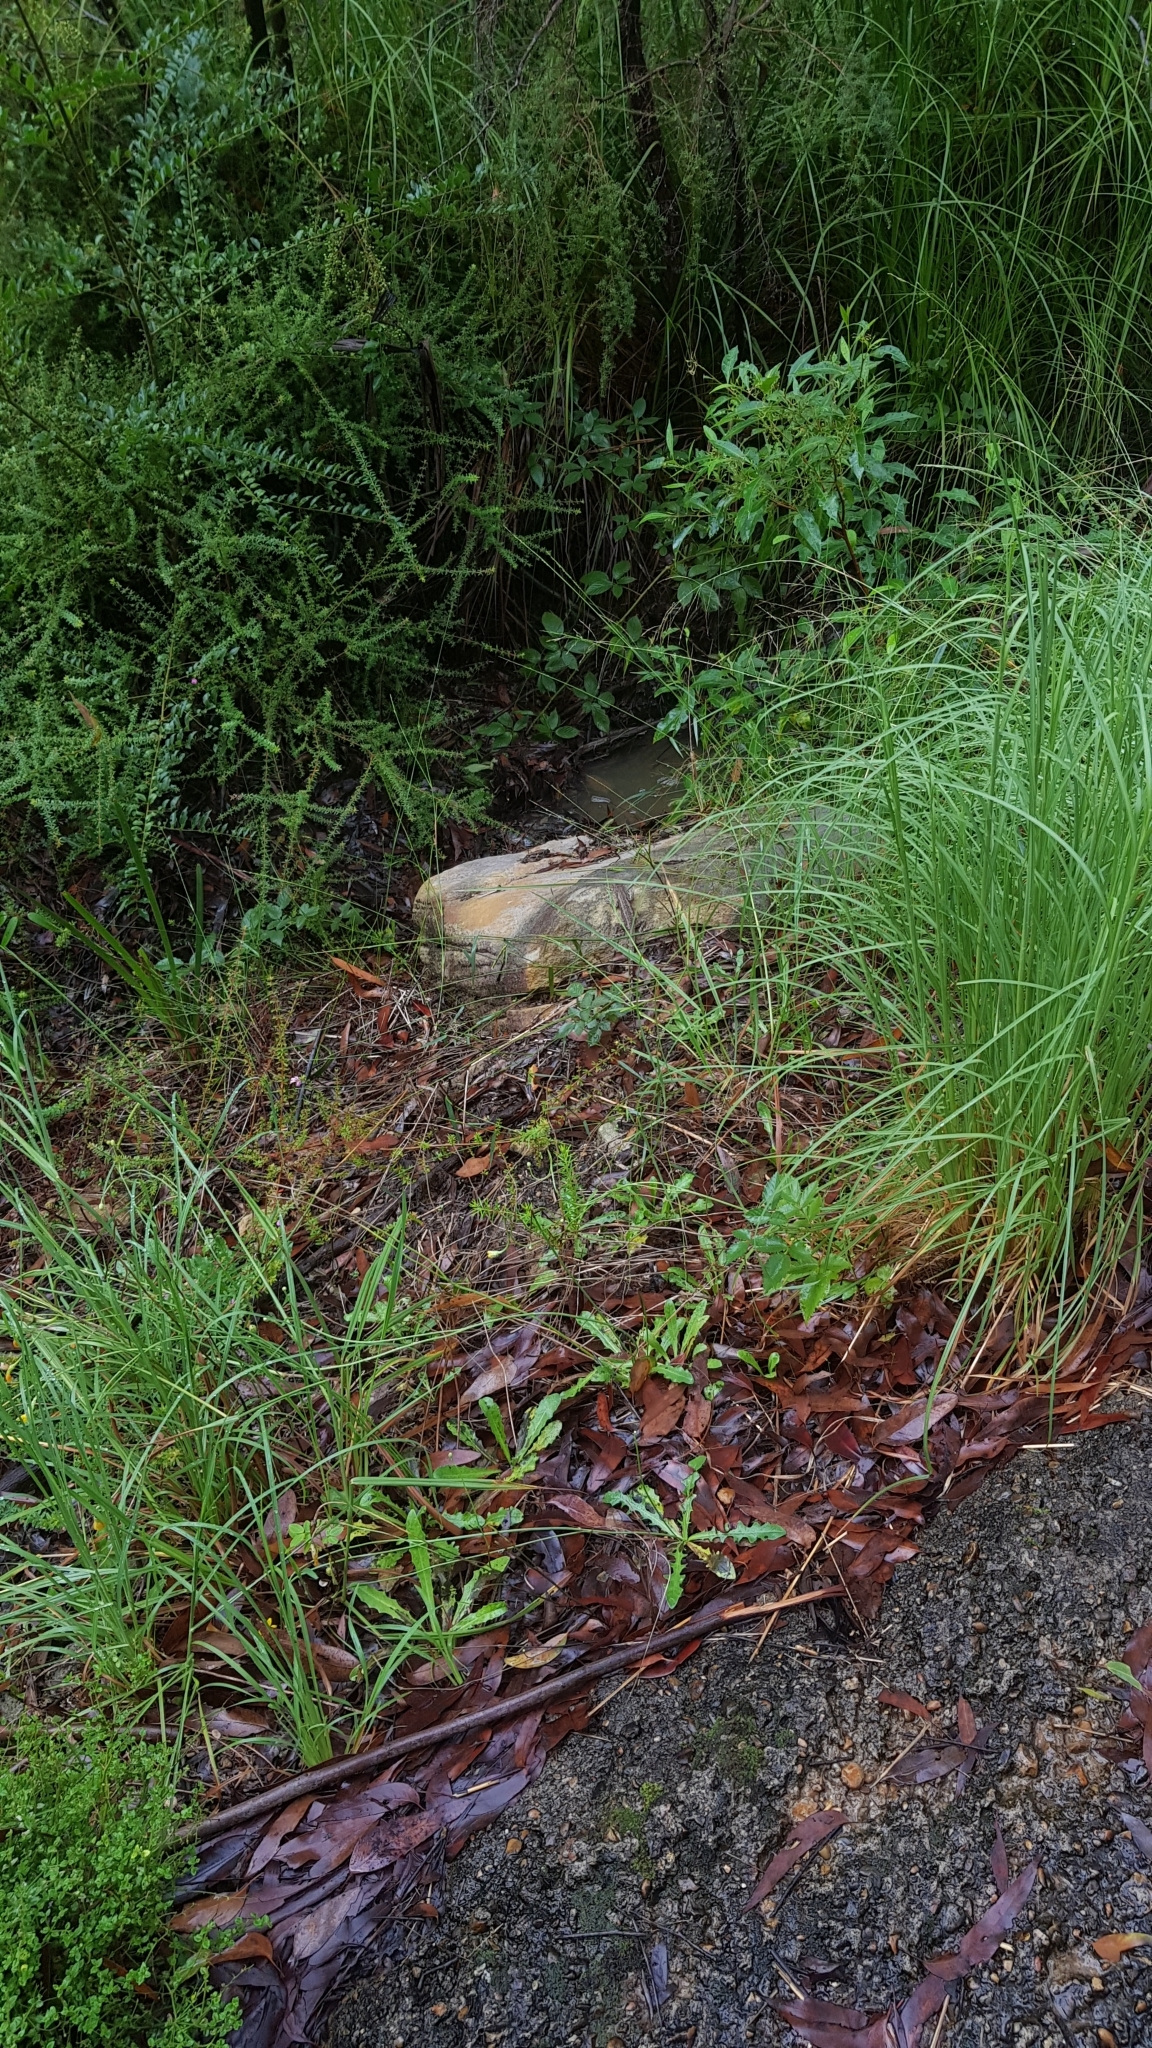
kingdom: Animalia
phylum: Chordata
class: Squamata
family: Agamidae
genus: Amphibolurus
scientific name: Amphibolurus muricatus
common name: Jacky lizard
